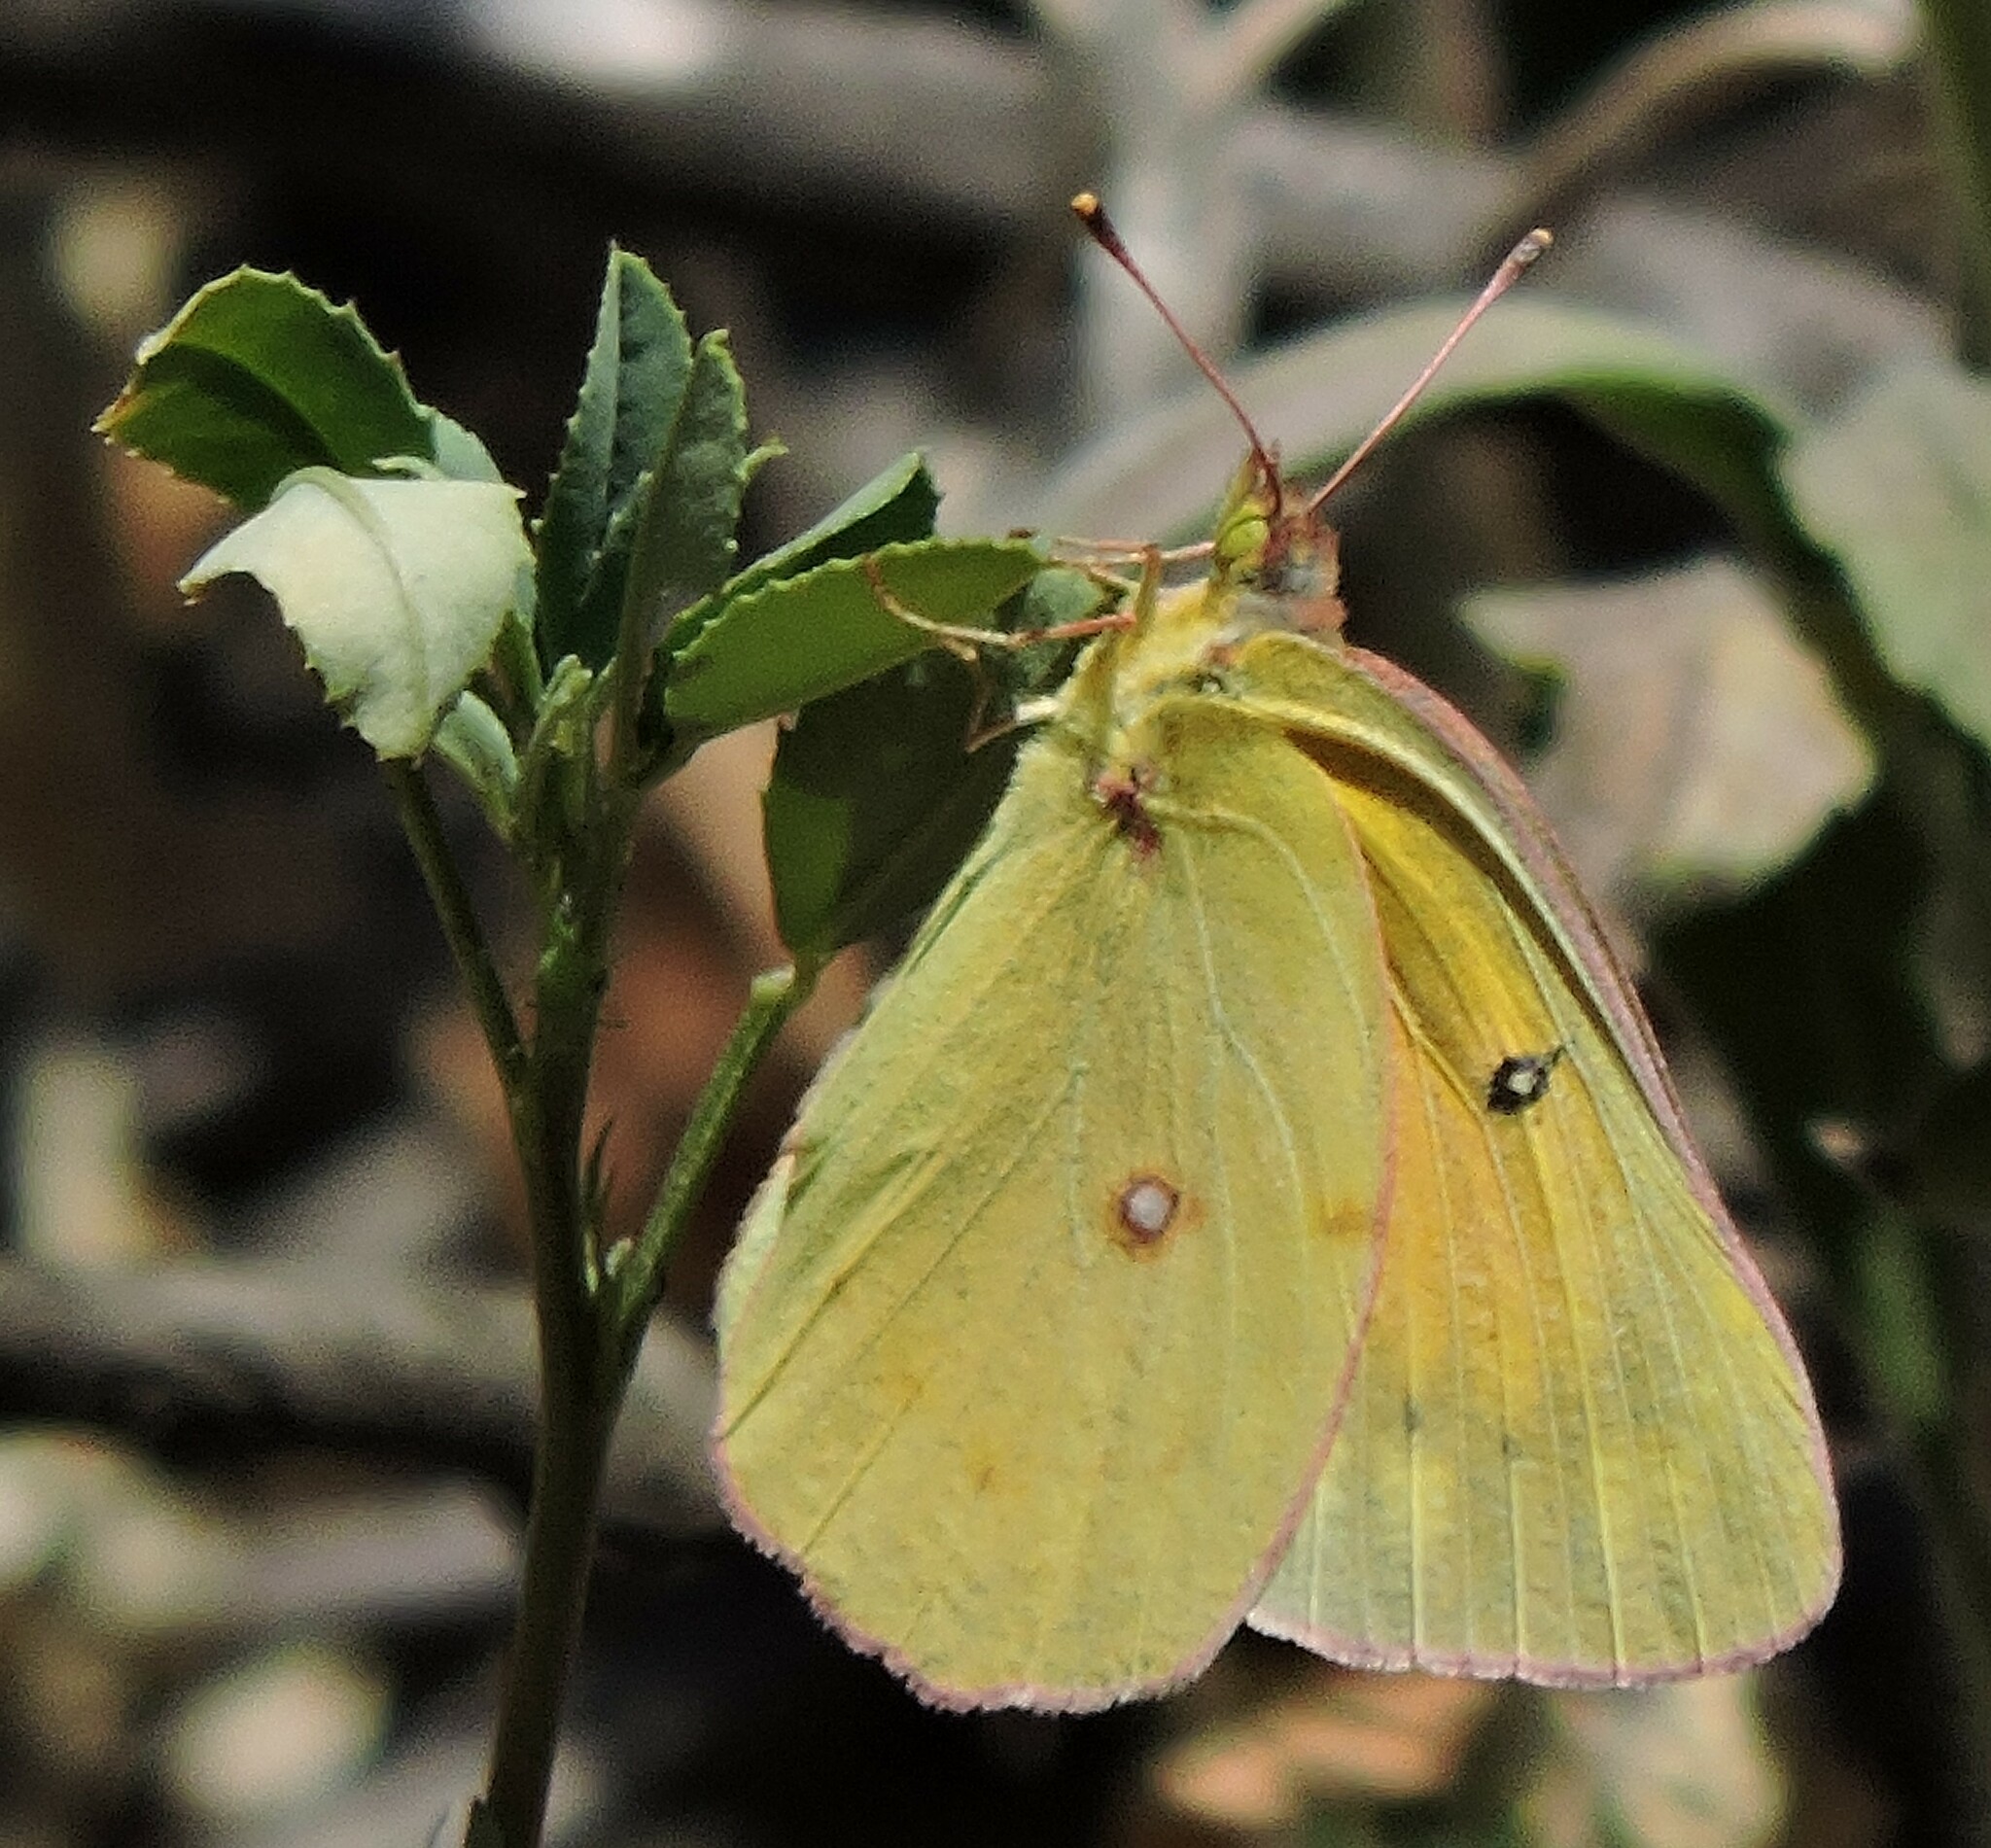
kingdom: Animalia
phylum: Arthropoda
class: Insecta
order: Lepidoptera
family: Pieridae
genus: Colias
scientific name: Colias eurytheme
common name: Alfalfa butterfly
